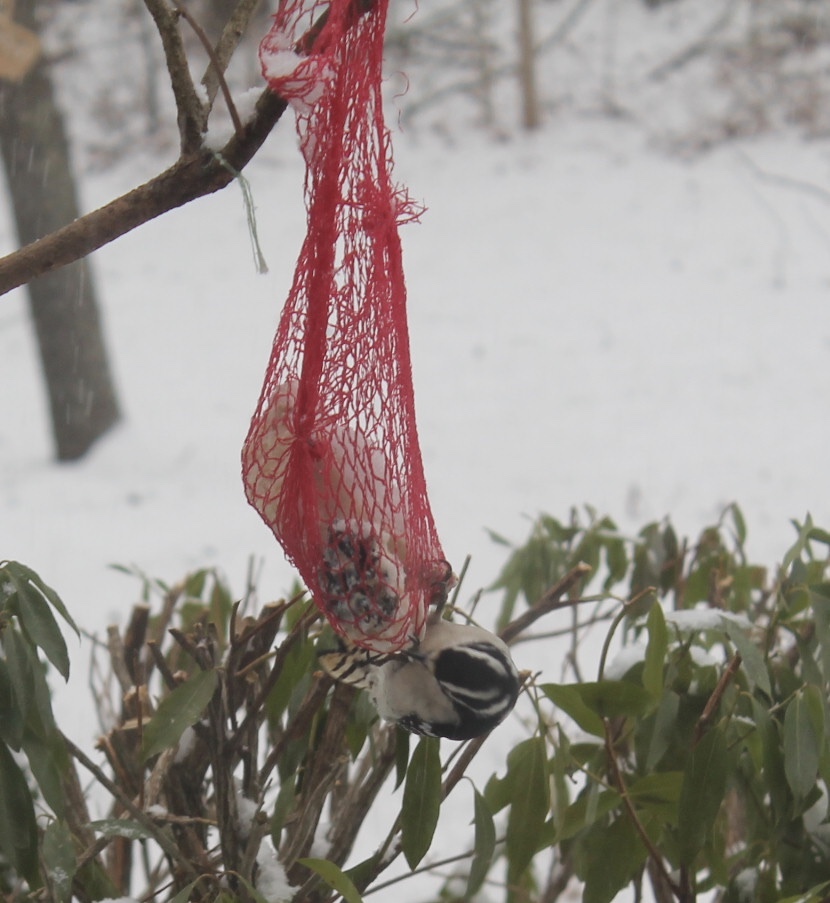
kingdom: Animalia
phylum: Chordata
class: Aves
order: Piciformes
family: Picidae
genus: Dryobates
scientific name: Dryobates pubescens
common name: Downy woodpecker
